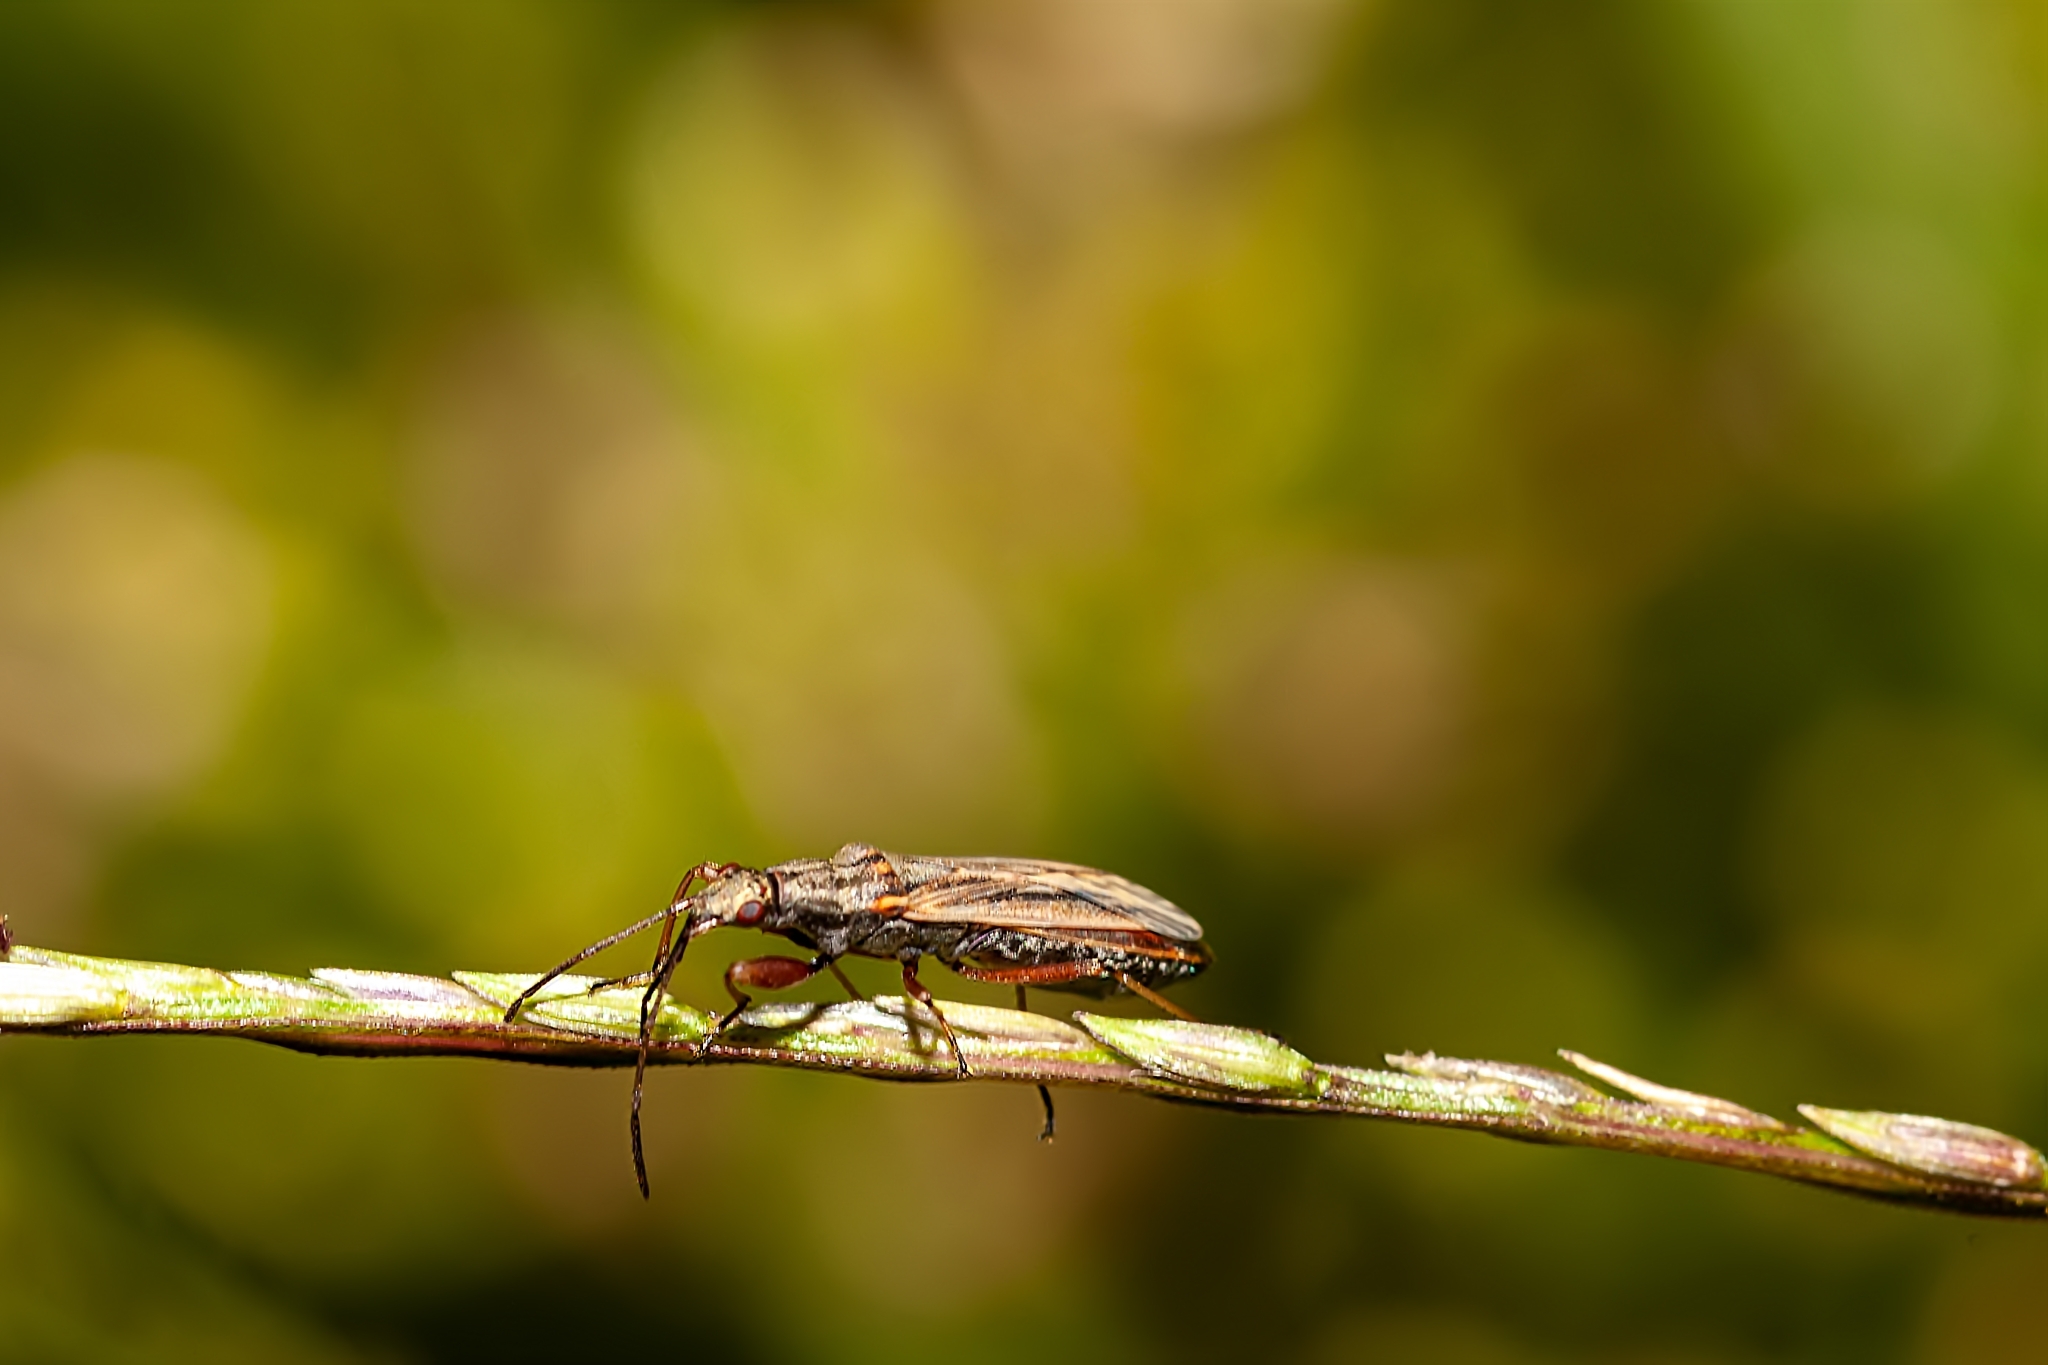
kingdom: Animalia
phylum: Arthropoda
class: Insecta
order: Hemiptera
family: Rhyparochromidae
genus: Paromius
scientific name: Paromius longulus
